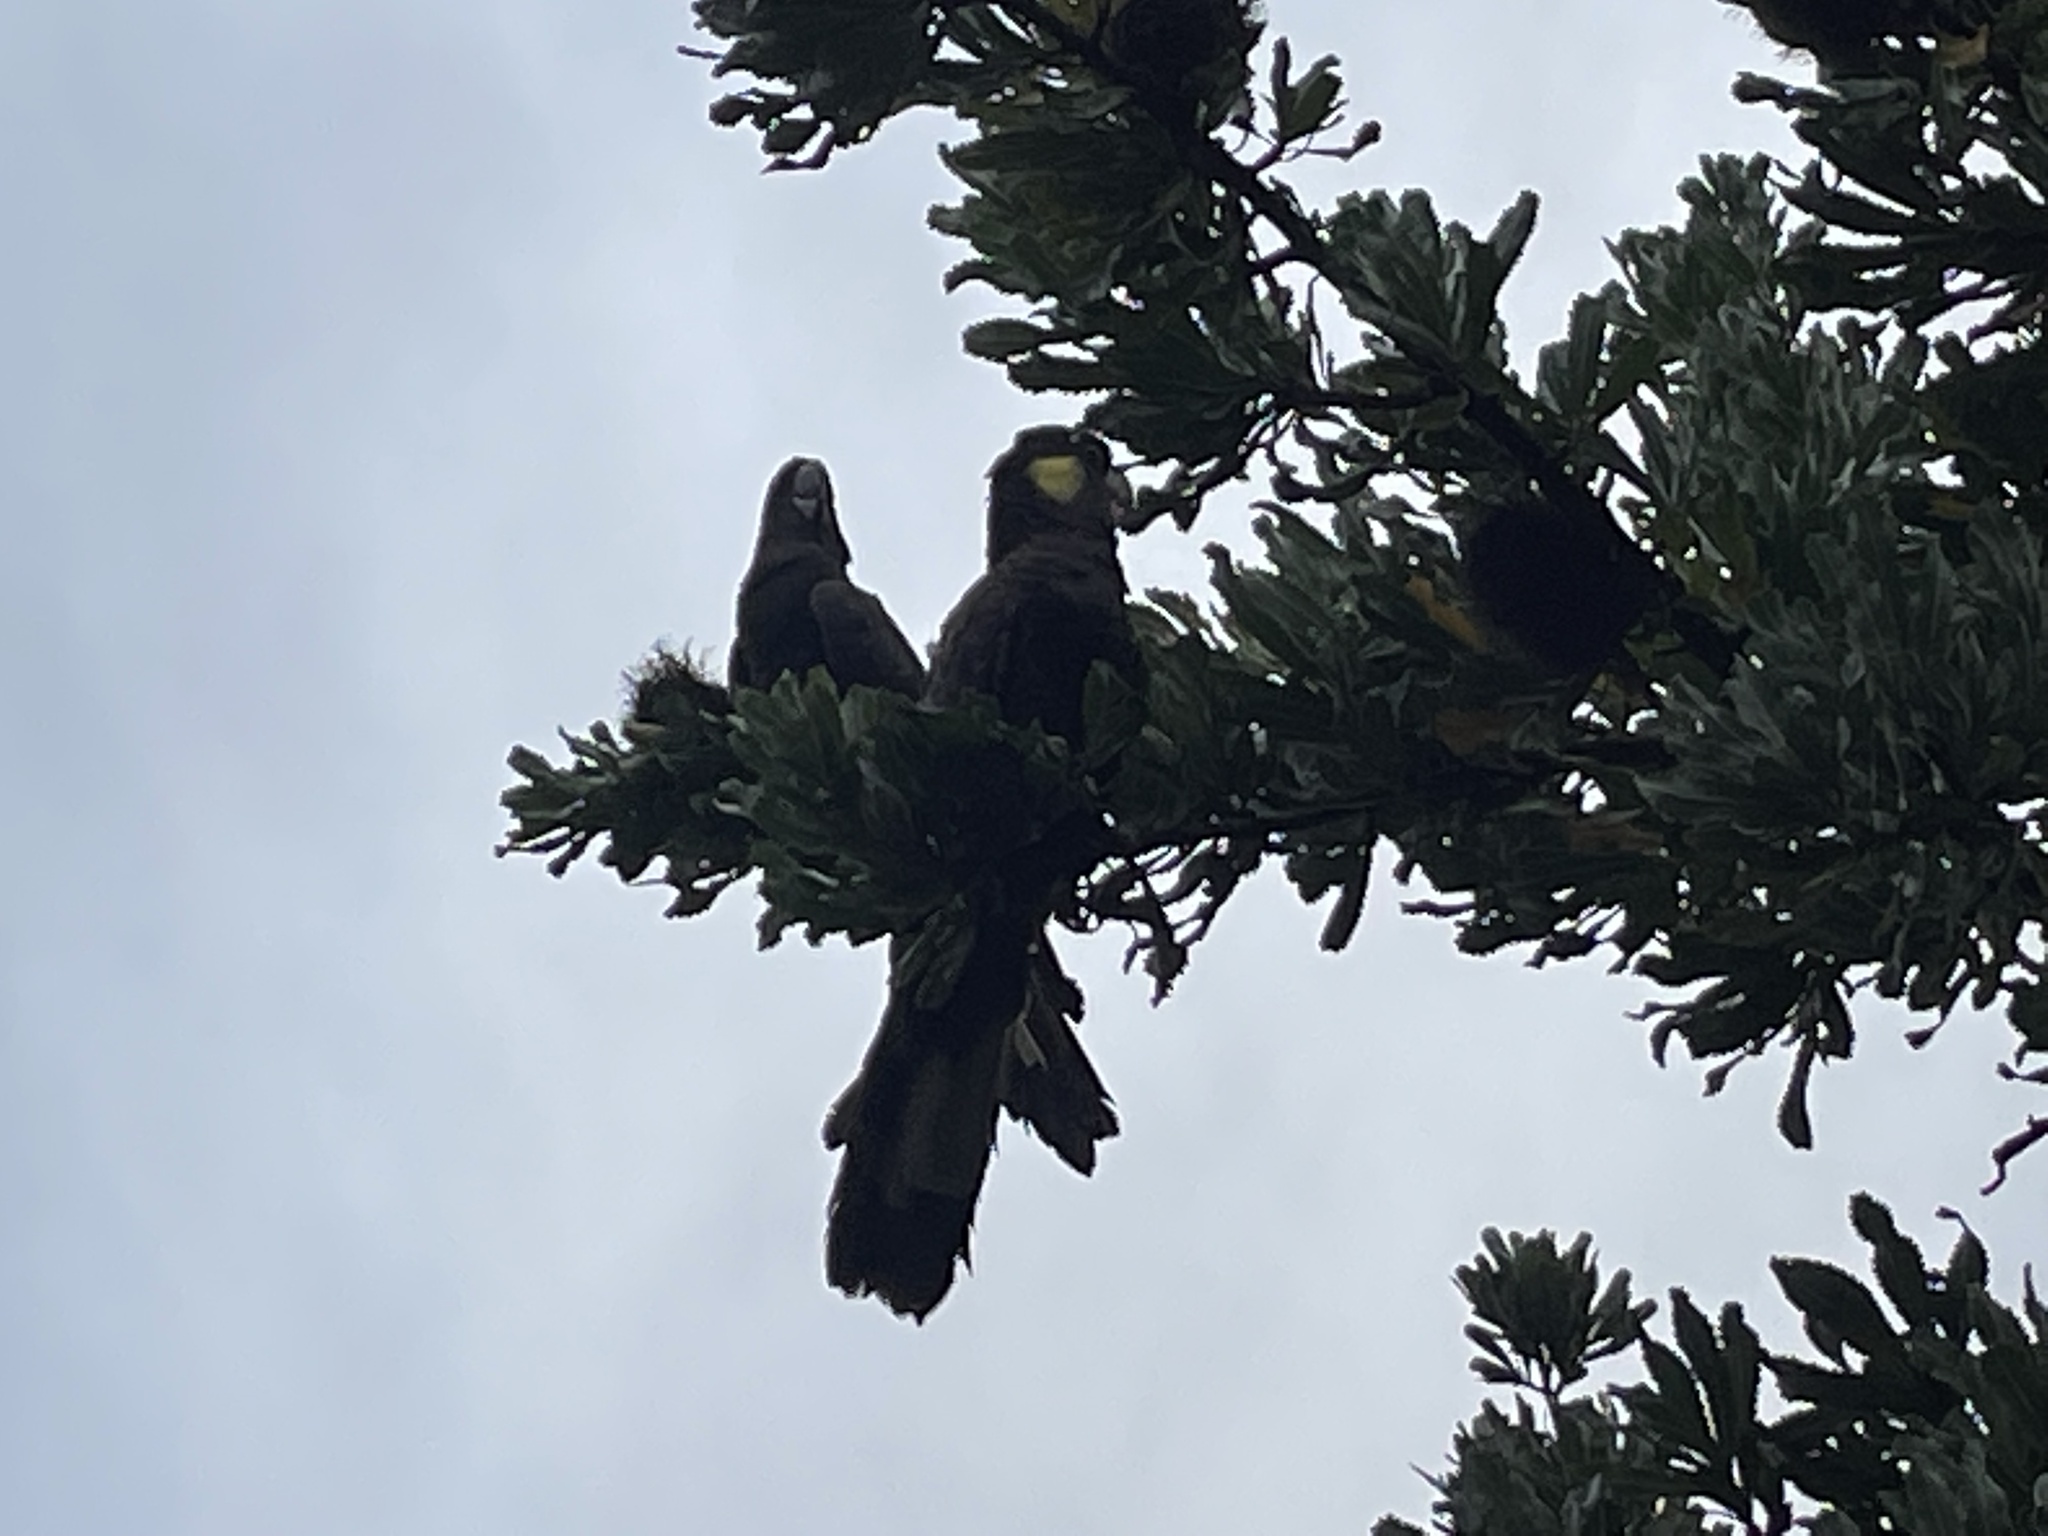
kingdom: Animalia
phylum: Chordata
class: Aves
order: Psittaciformes
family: Cacatuidae
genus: Zanda
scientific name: Zanda funerea
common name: Yellow-tailed black-cockatoo
